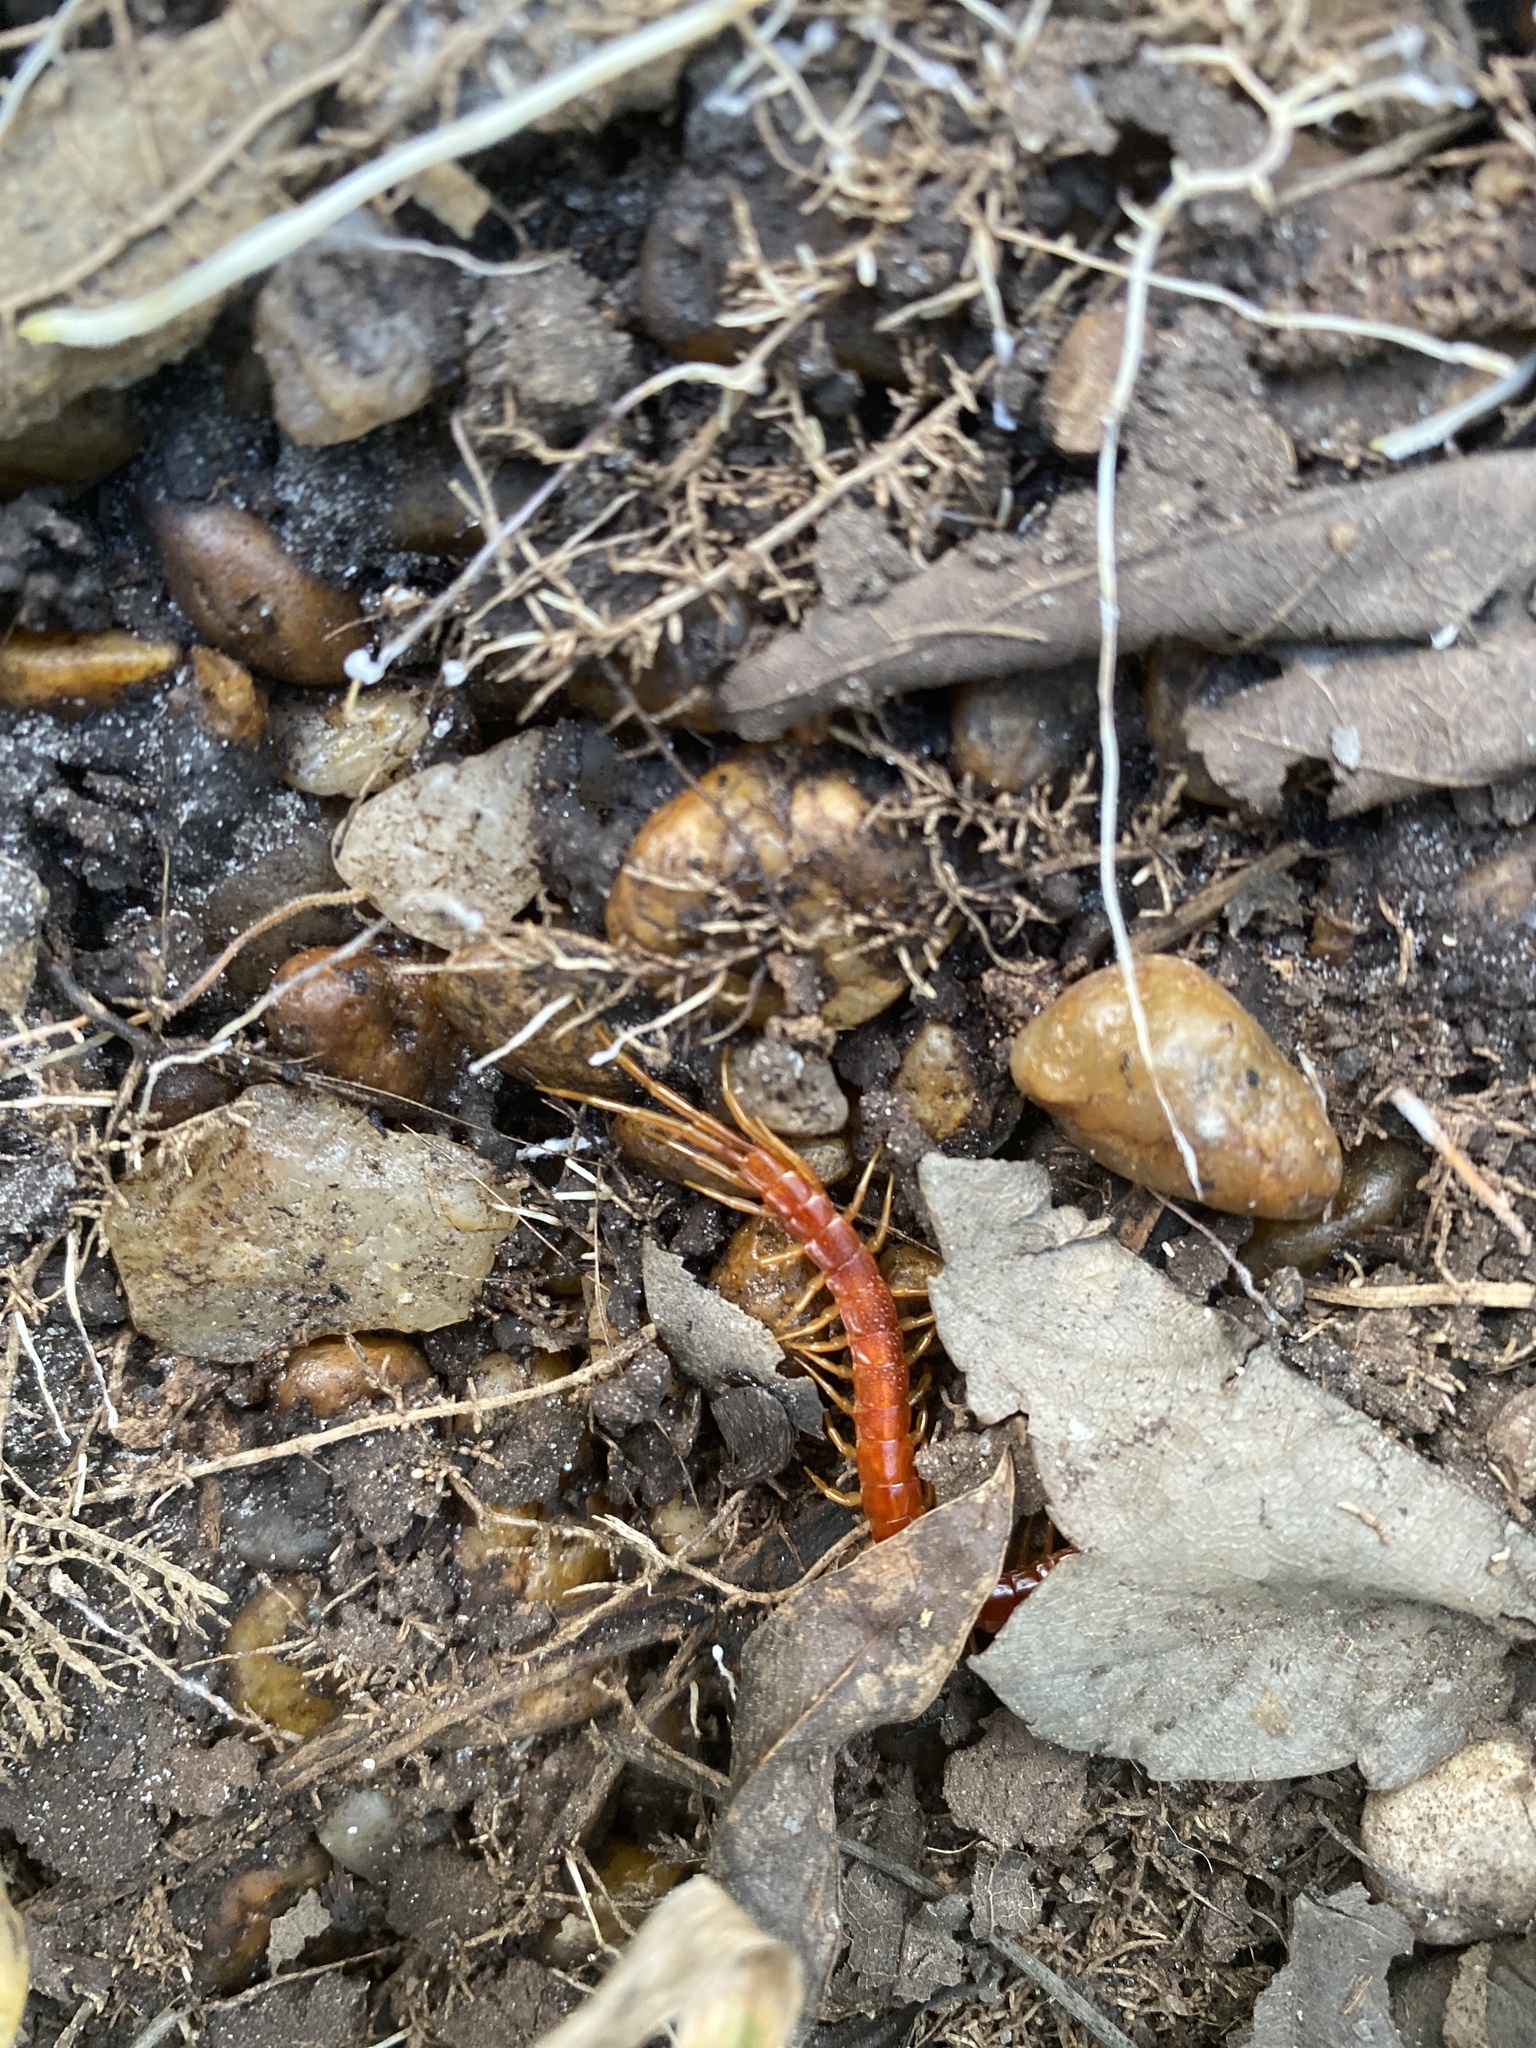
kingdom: Animalia
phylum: Arthropoda
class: Chilopoda
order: Scolopendromorpha
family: Scolopocryptopidae
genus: Scolopocryptops
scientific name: Scolopocryptops sexspinosus
